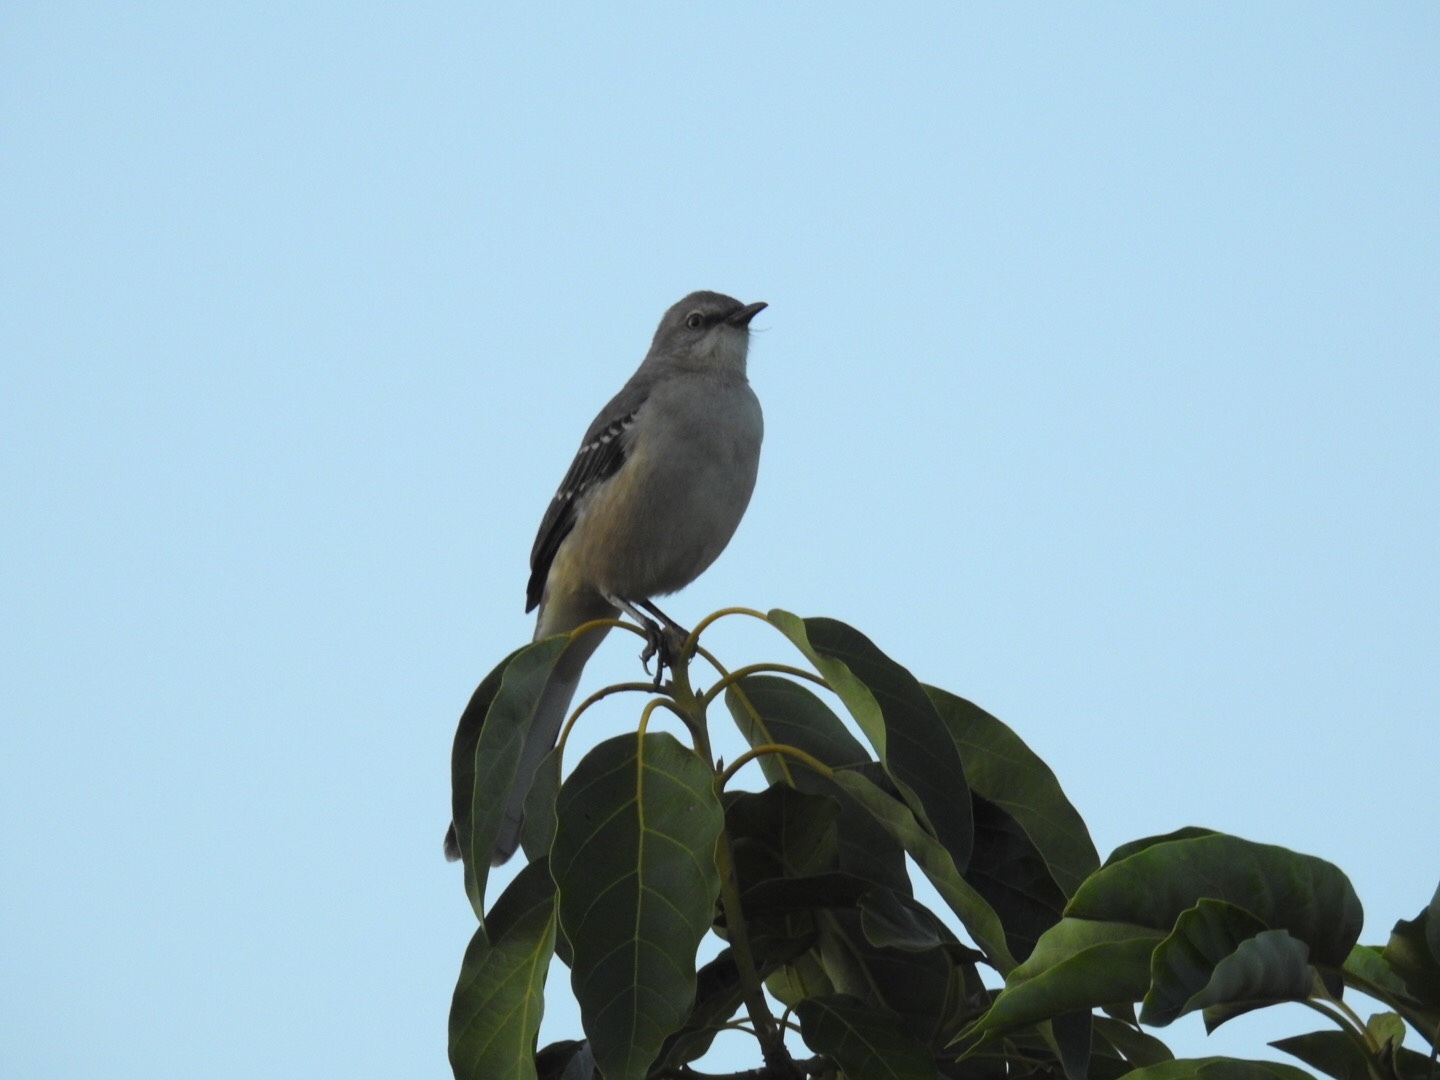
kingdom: Animalia
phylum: Chordata
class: Aves
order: Passeriformes
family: Mimidae
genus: Mimus
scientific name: Mimus polyglottos
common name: Northern mockingbird
